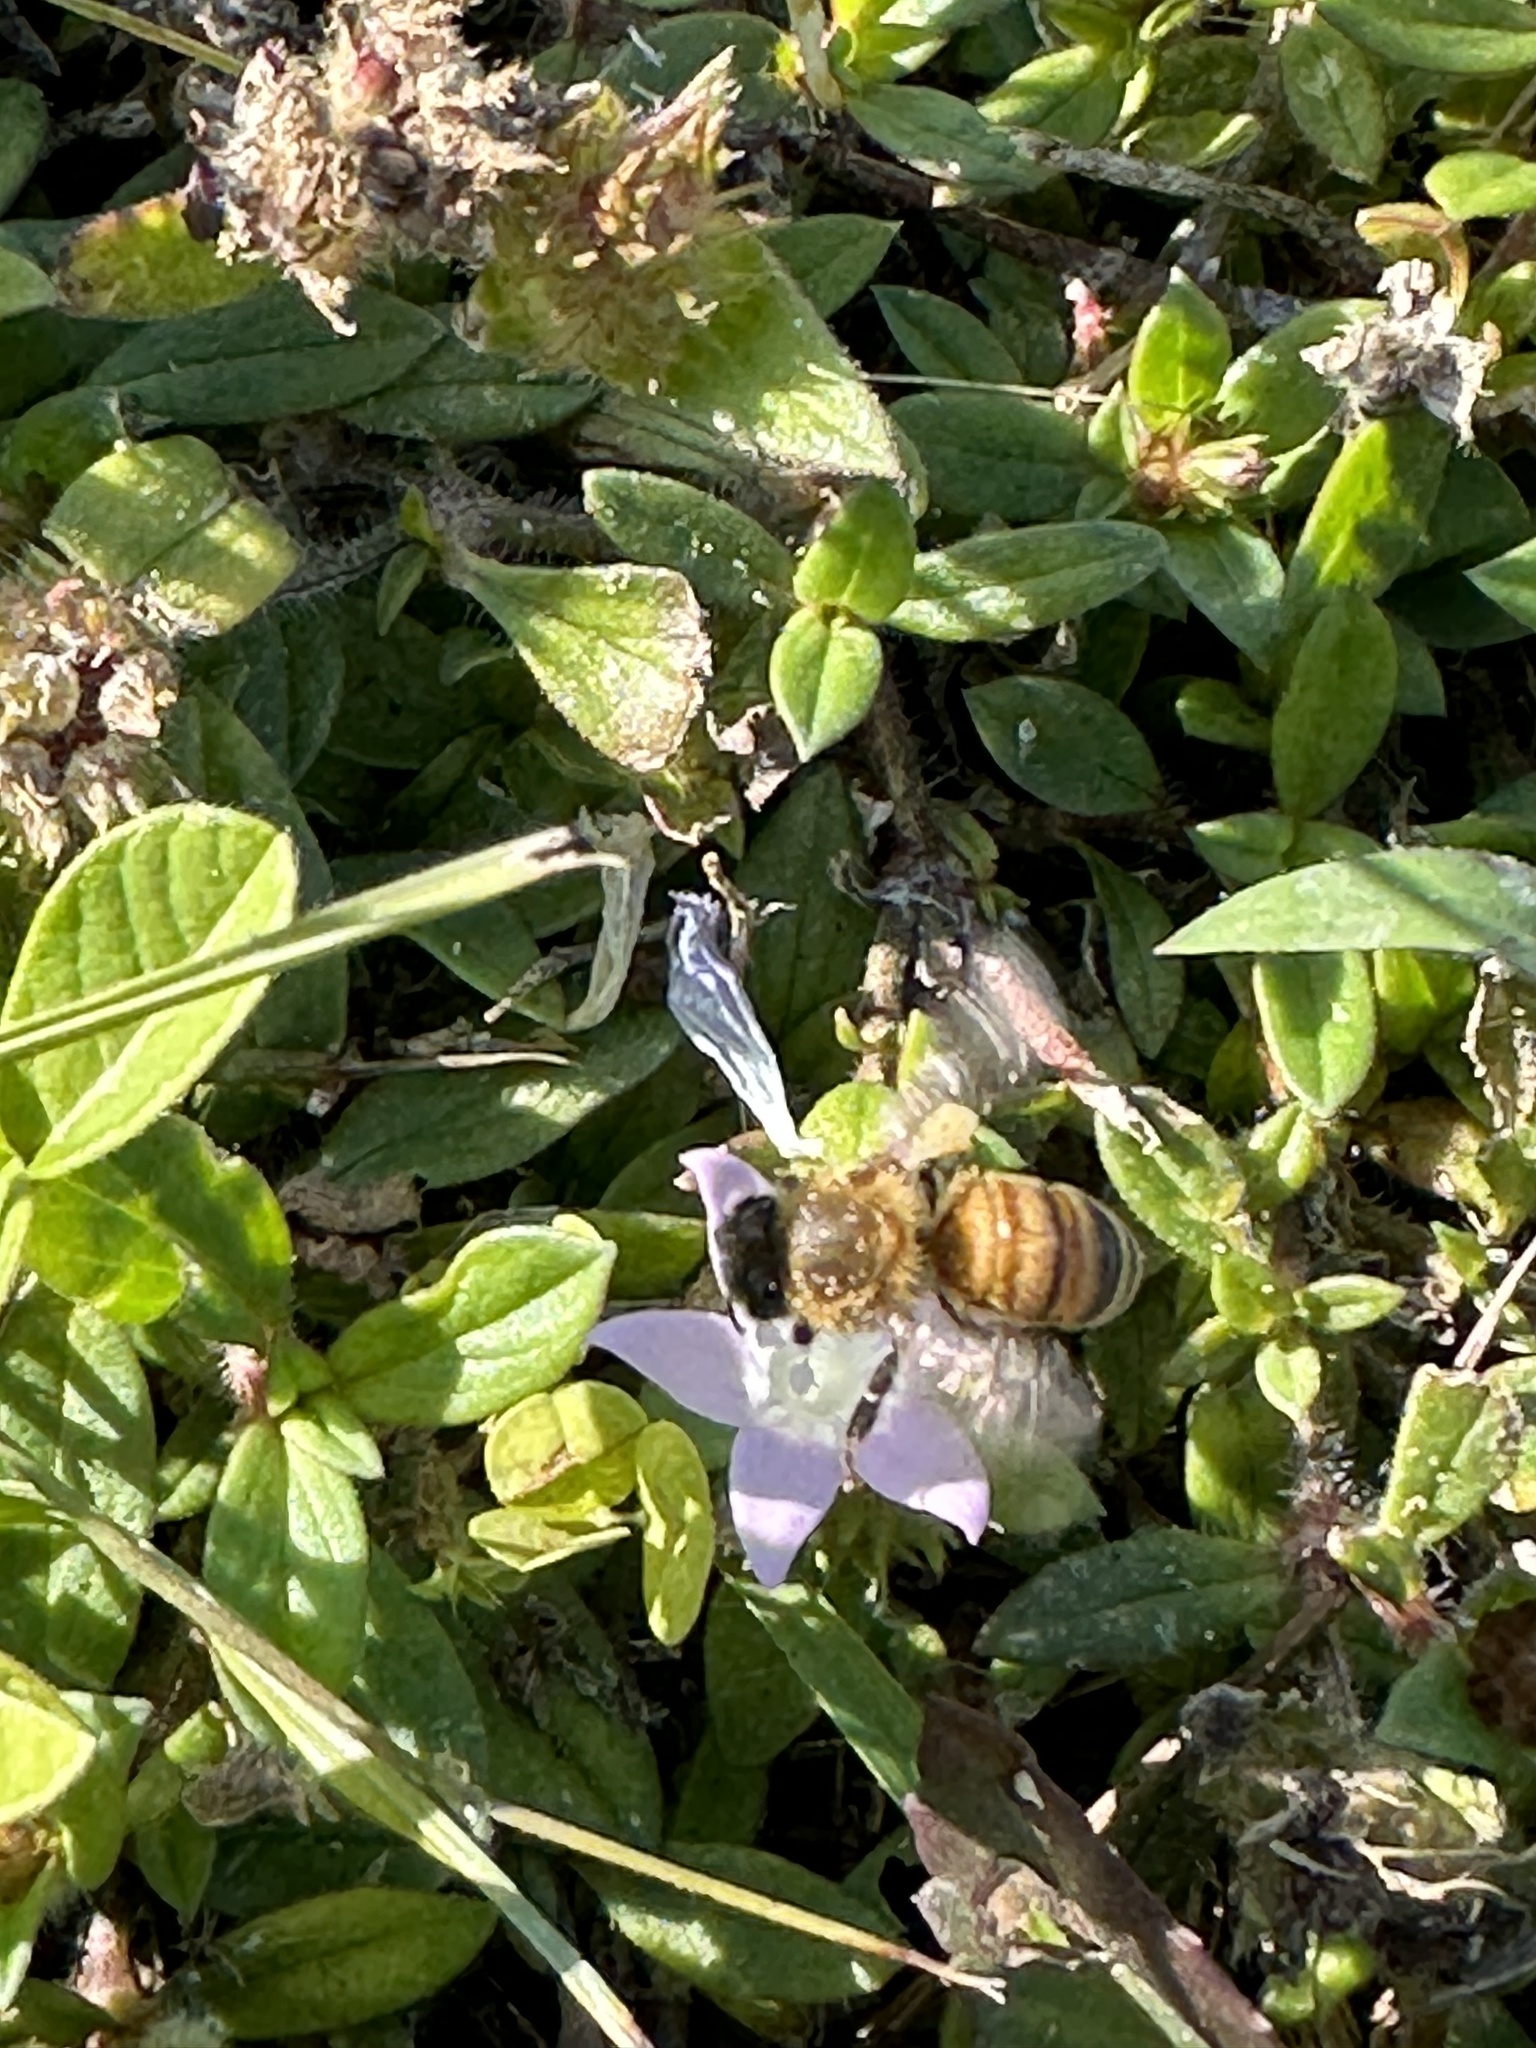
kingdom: Animalia
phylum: Arthropoda
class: Insecta
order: Hymenoptera
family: Apidae
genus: Apis
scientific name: Apis mellifera
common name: Honey bee
